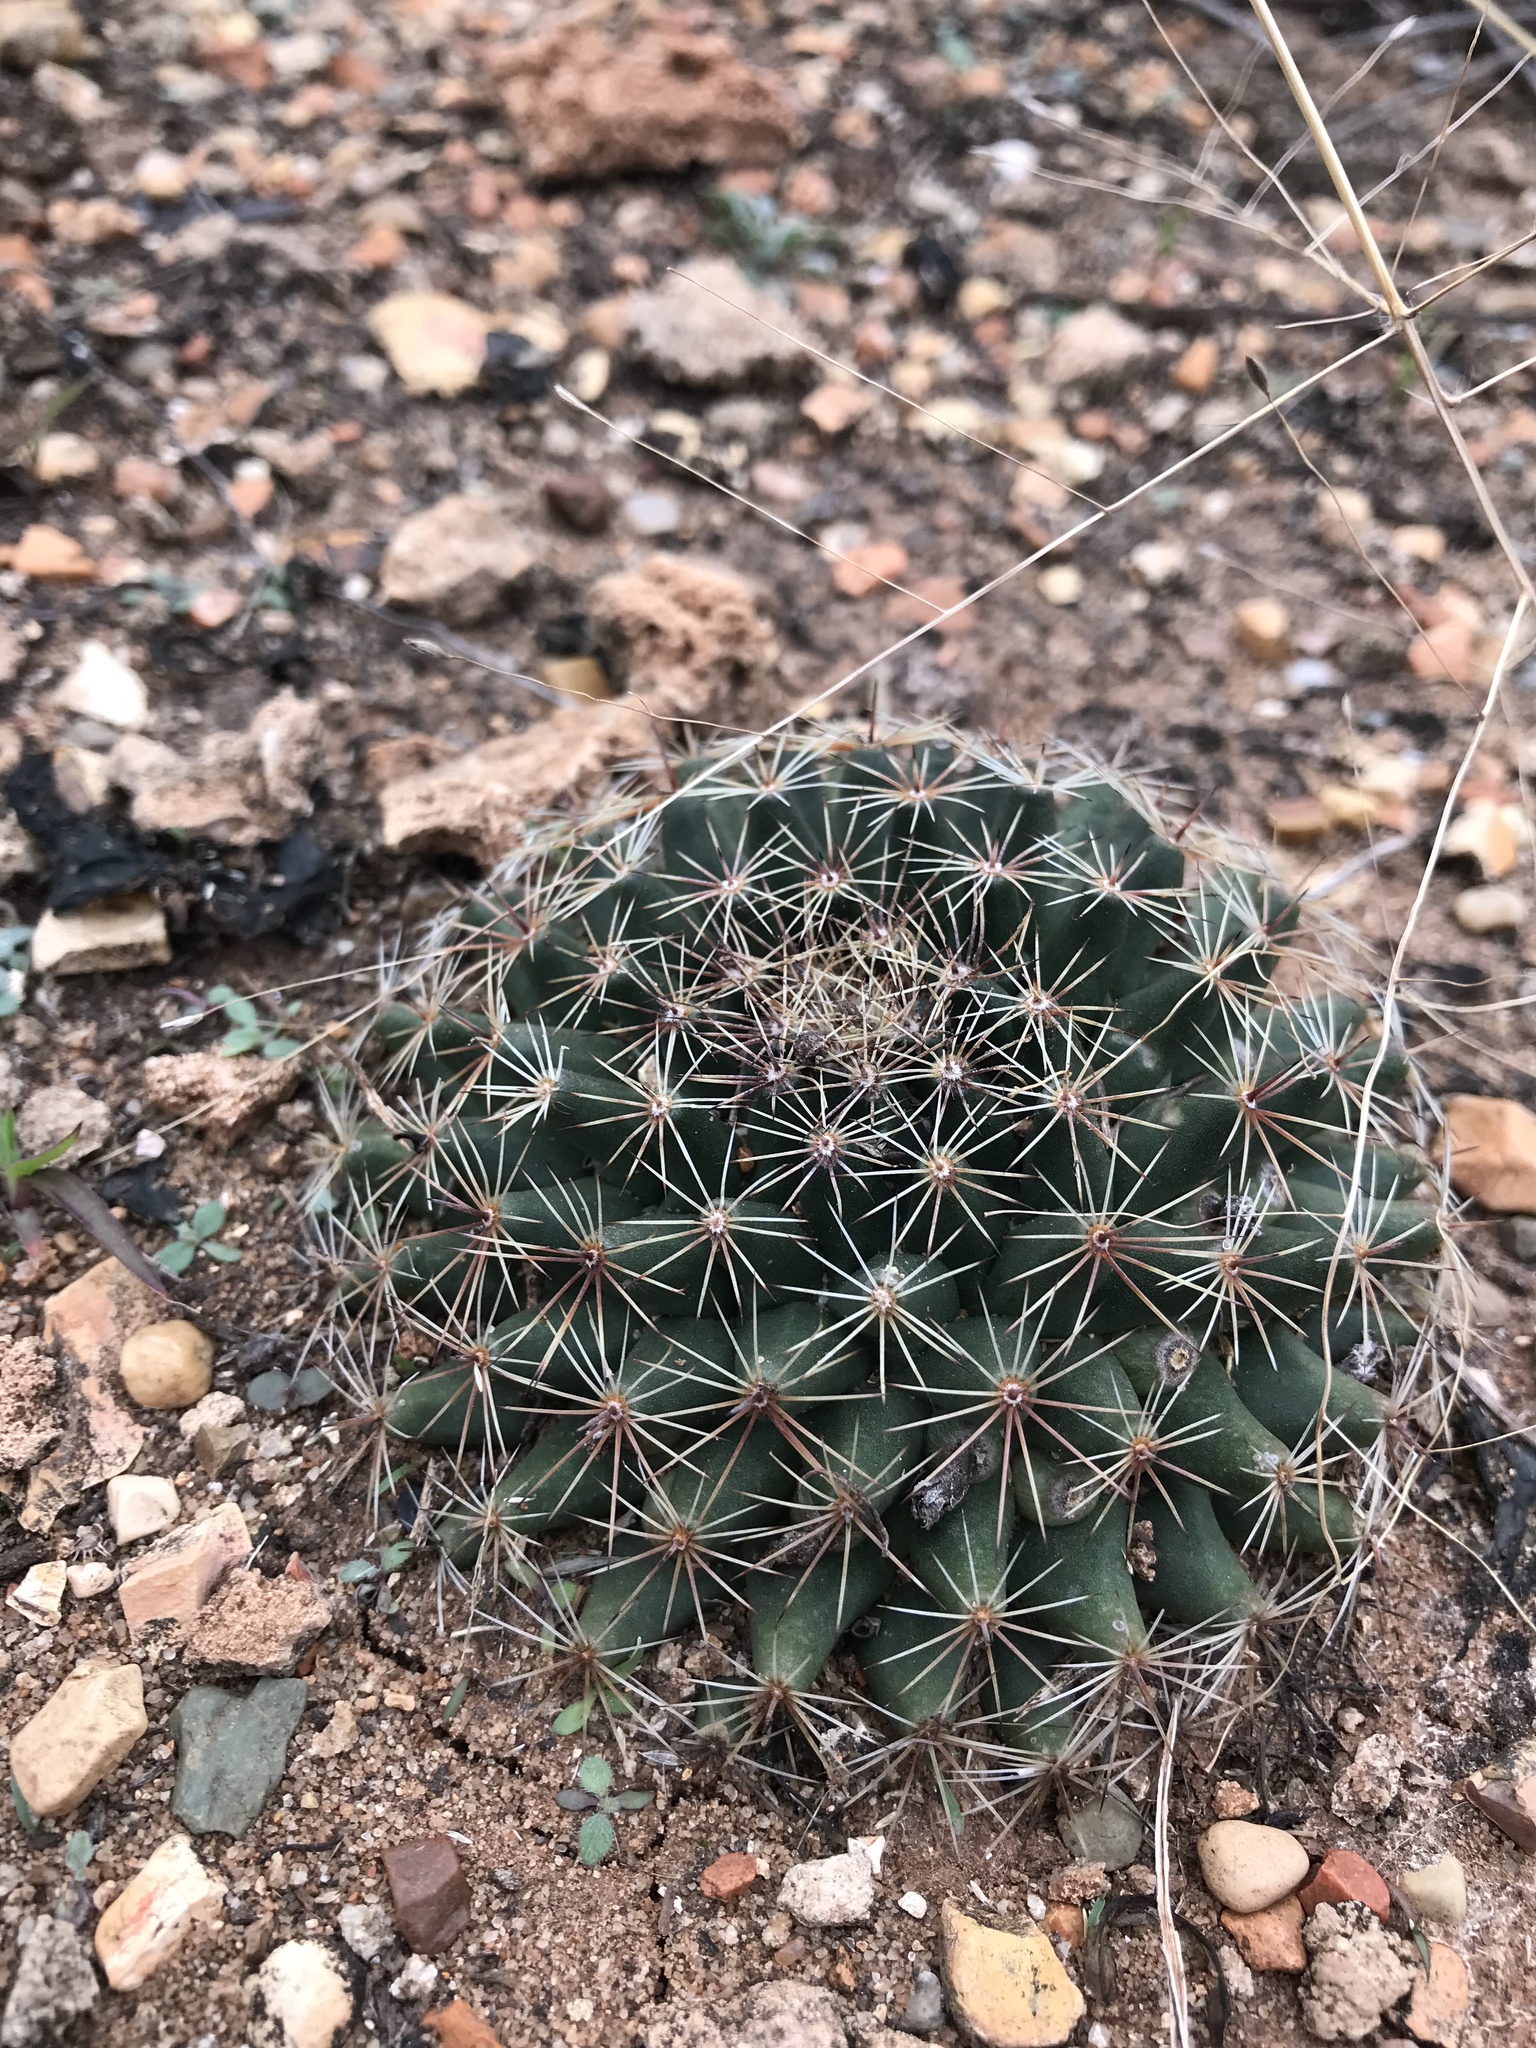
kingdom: Plantae
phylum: Tracheophyta
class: Magnoliopsida
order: Caryophyllales
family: Cactaceae
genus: Mammillaria
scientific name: Mammillaria heyderi
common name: Little nipple cactus
